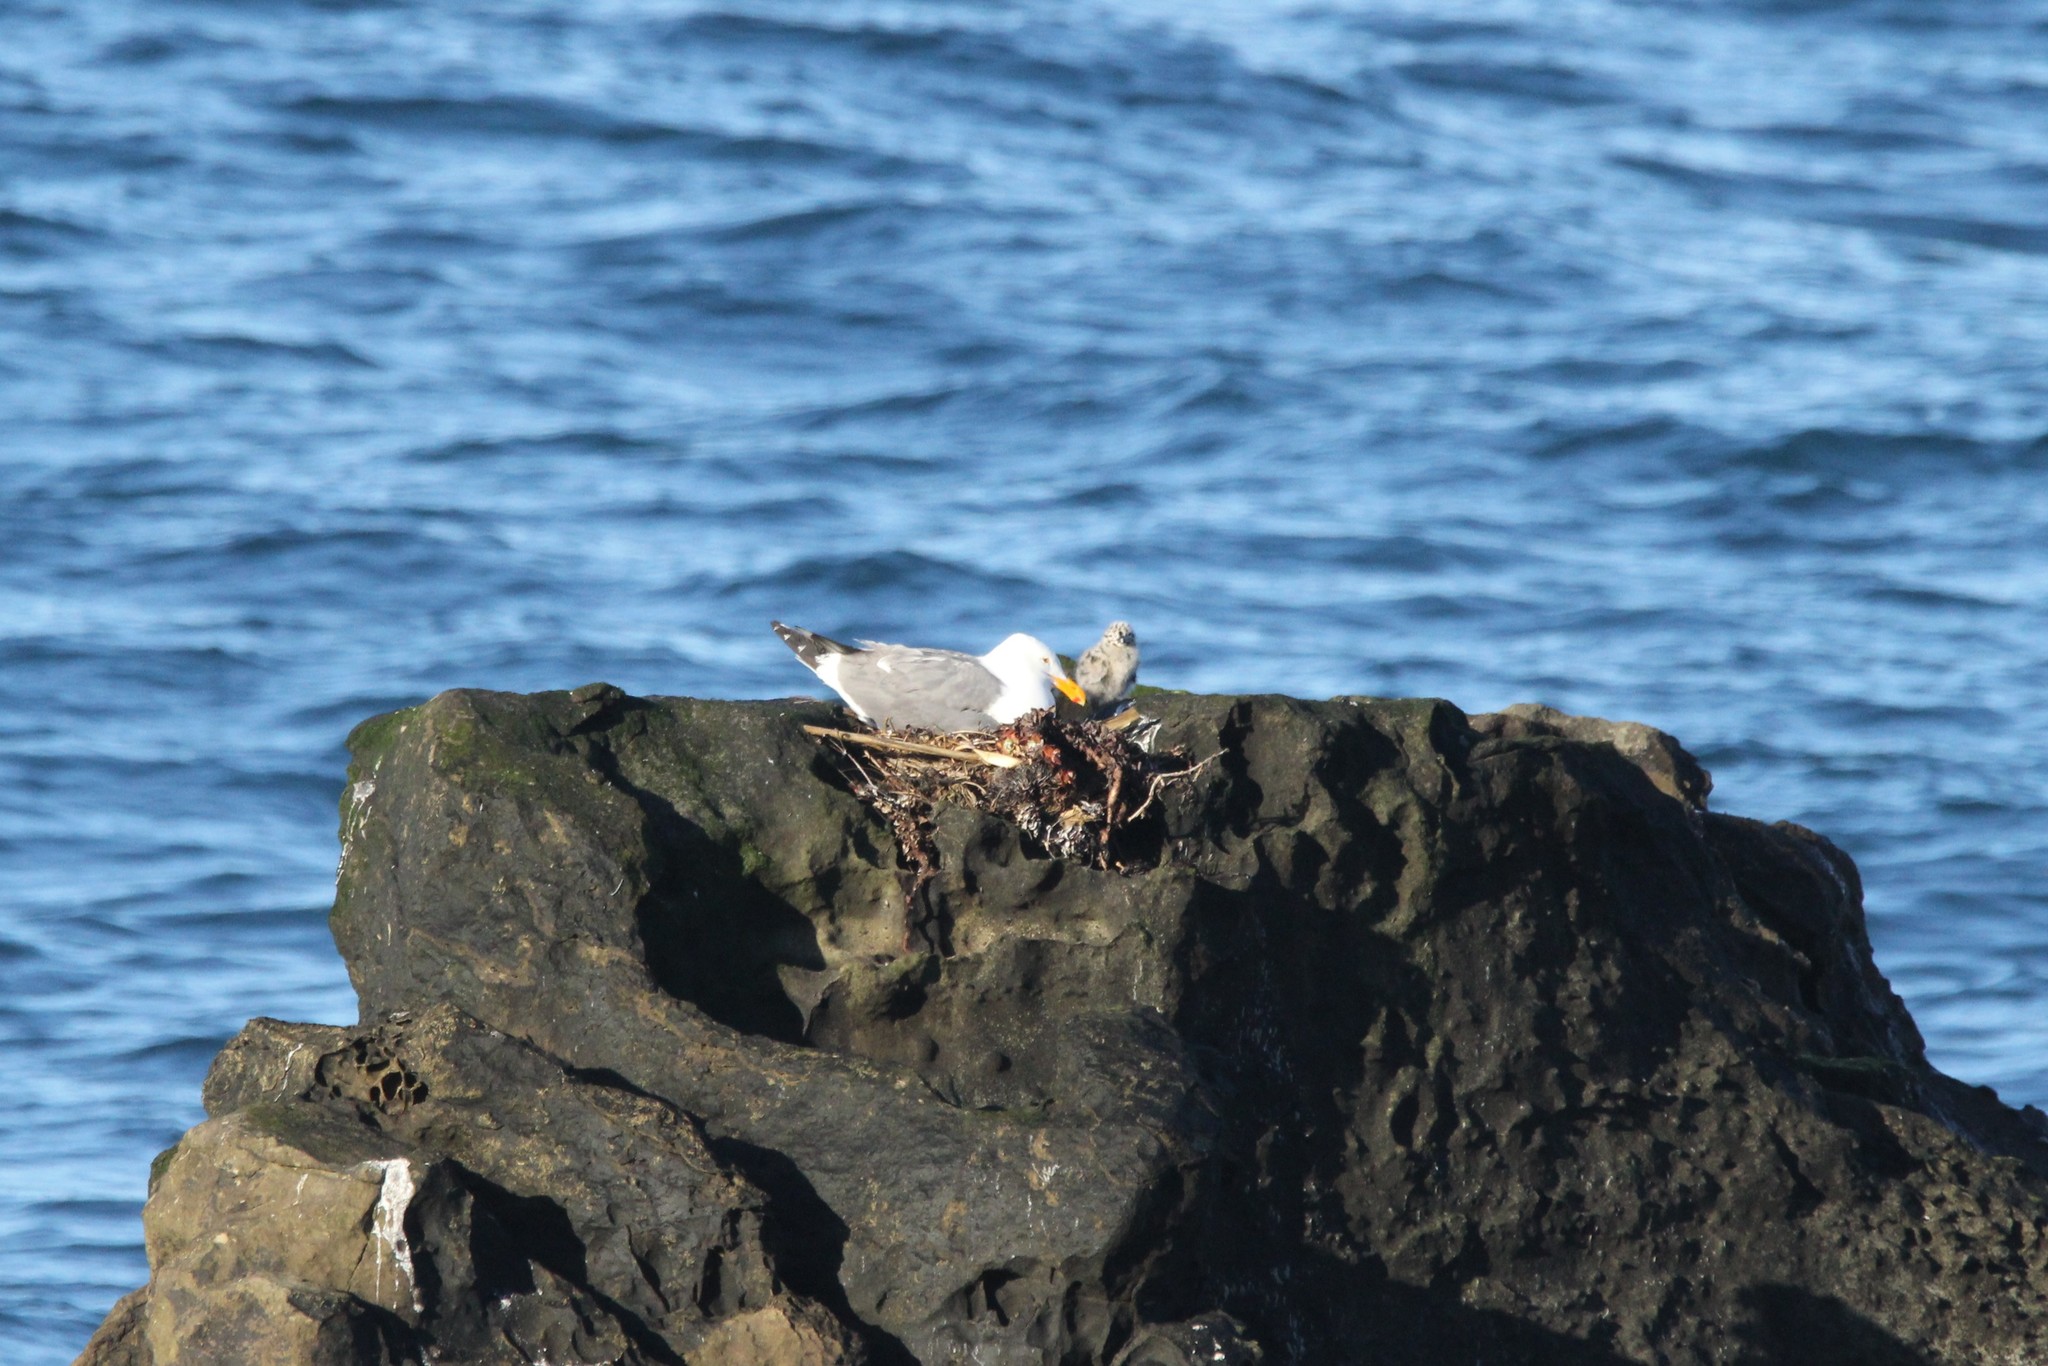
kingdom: Animalia
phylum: Chordata
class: Aves
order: Charadriiformes
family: Laridae
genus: Larus
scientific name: Larus occidentalis
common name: Western gull
